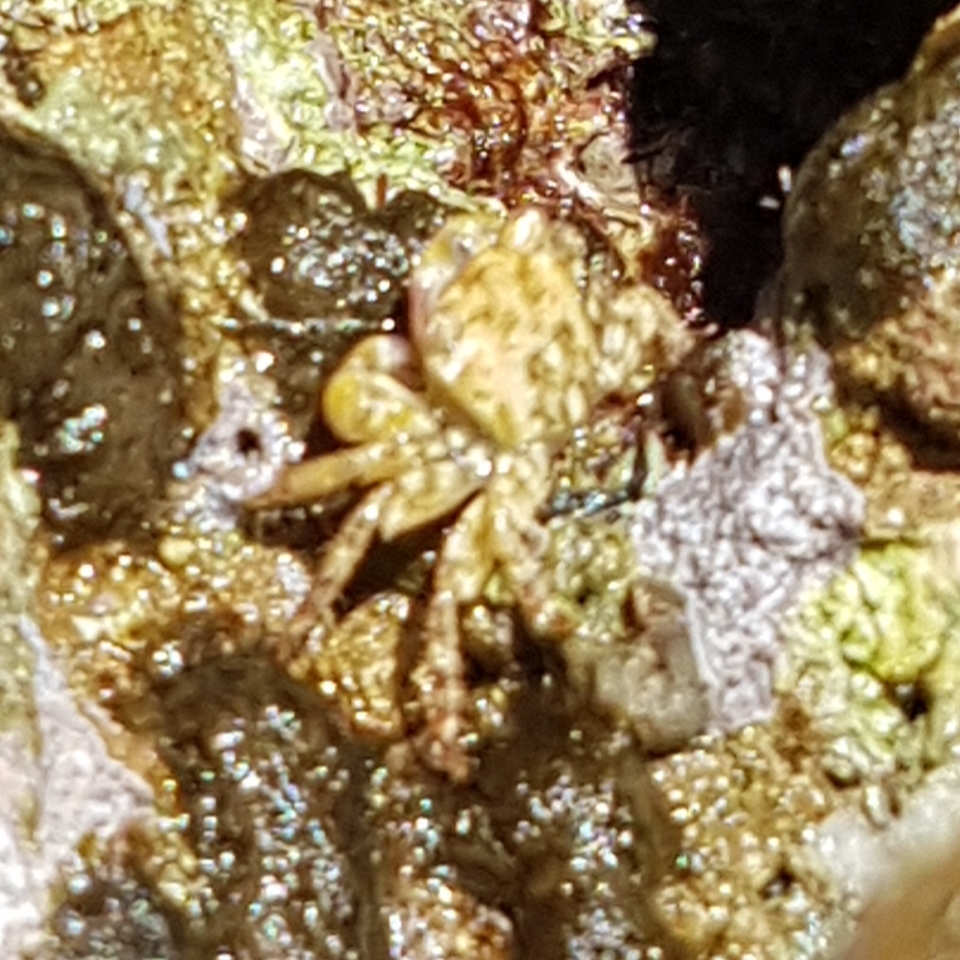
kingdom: Animalia
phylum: Arthropoda
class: Malacostraca
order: Decapoda
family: Grapsidae
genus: Pachygrapsus
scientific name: Pachygrapsus marmoratus
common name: Marbled rock crab
